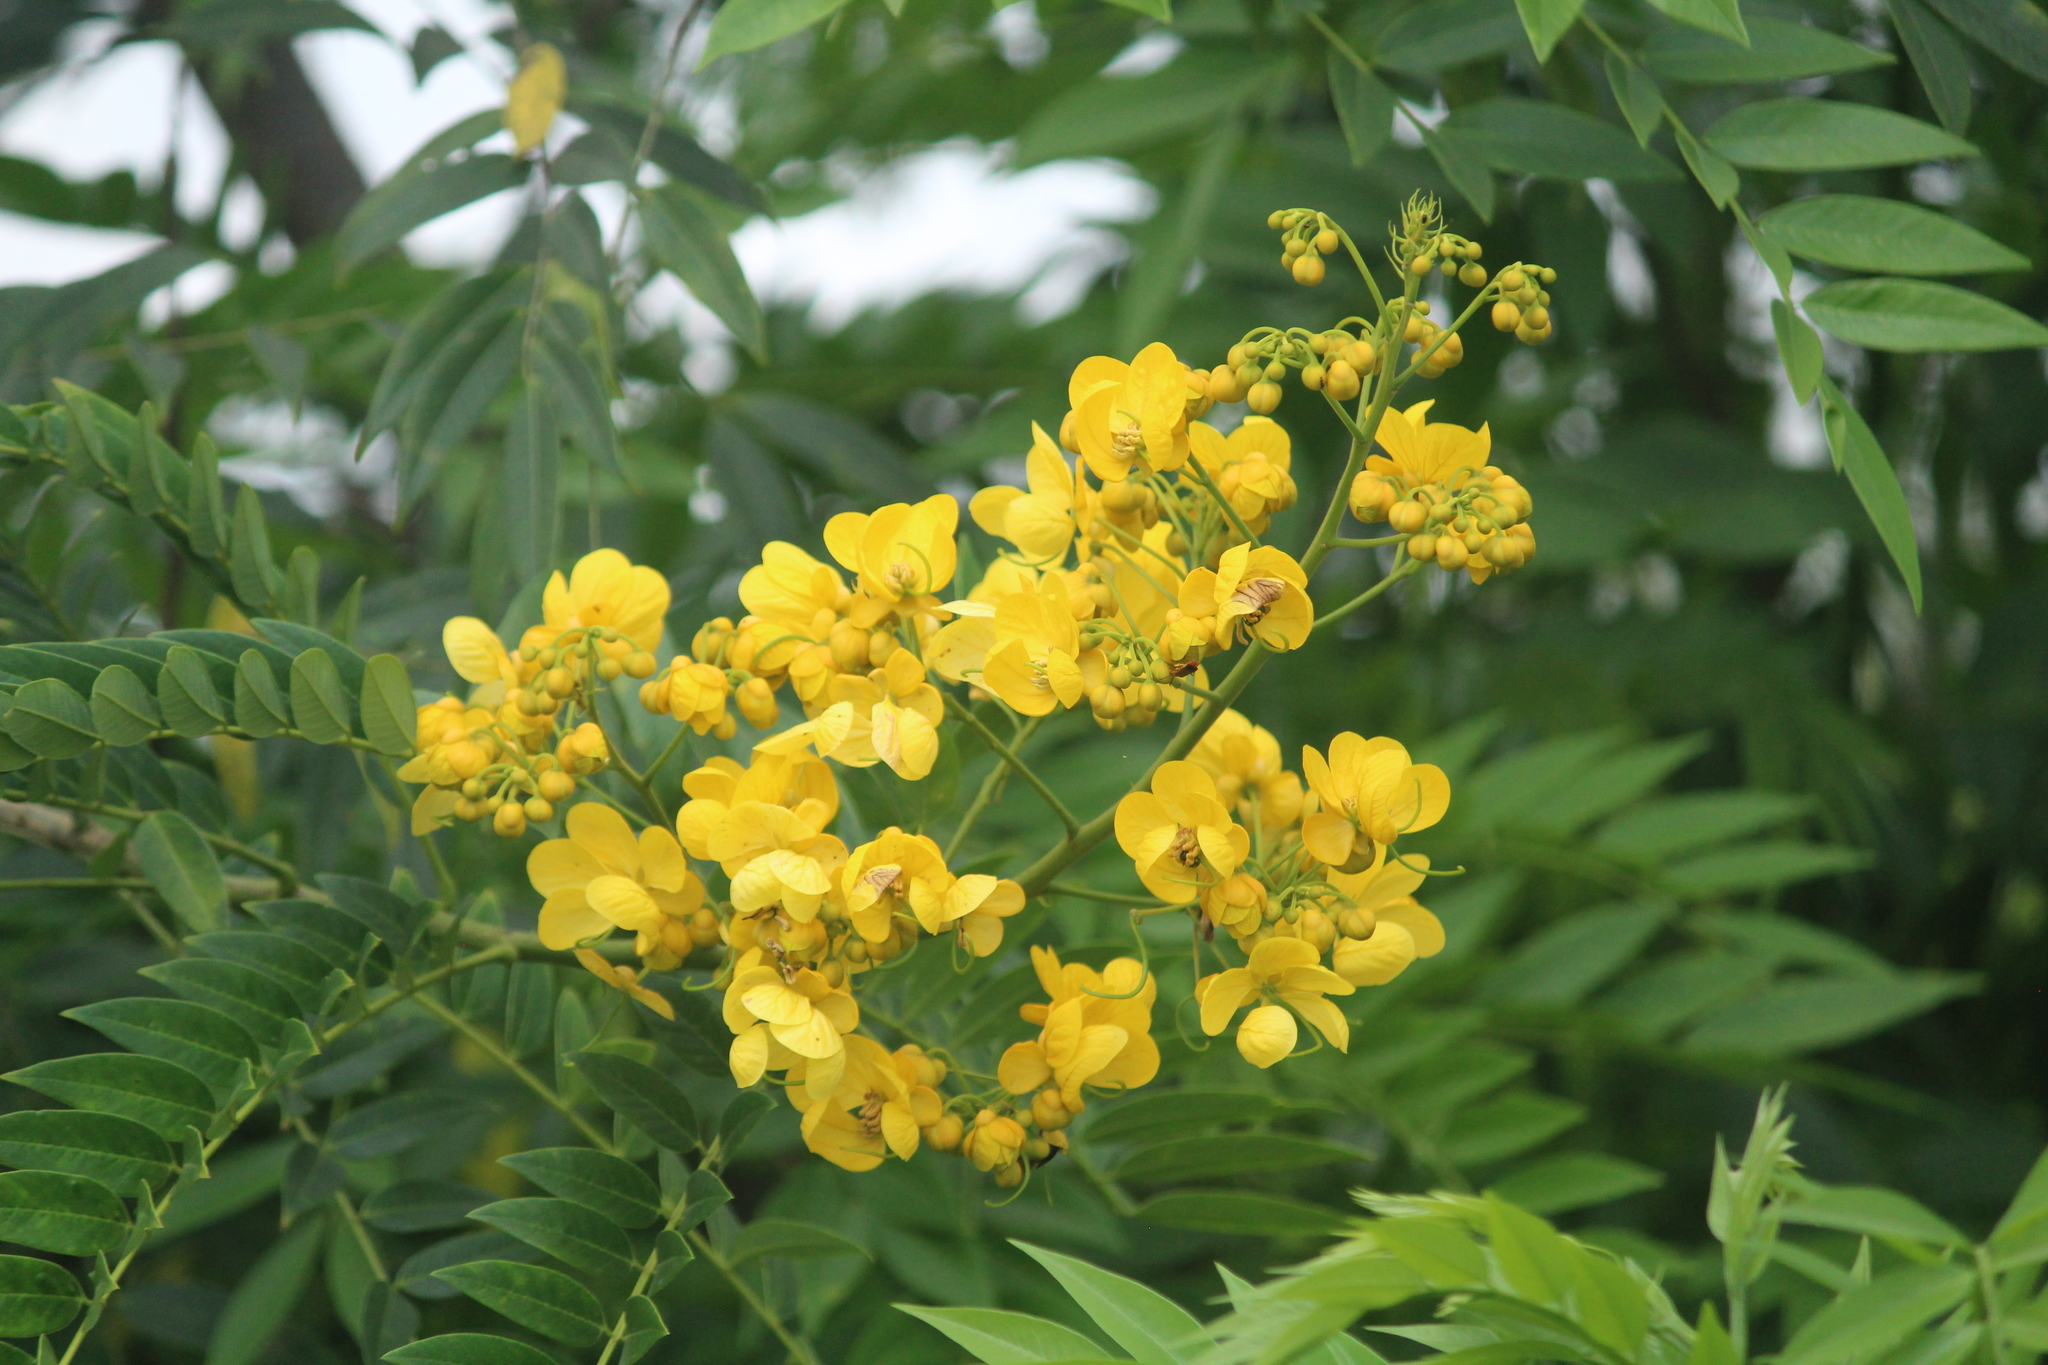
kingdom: Plantae
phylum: Tracheophyta
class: Magnoliopsida
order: Fabales
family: Fabaceae
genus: Senna
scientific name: Senna spectabilis
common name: Casia amarilla
